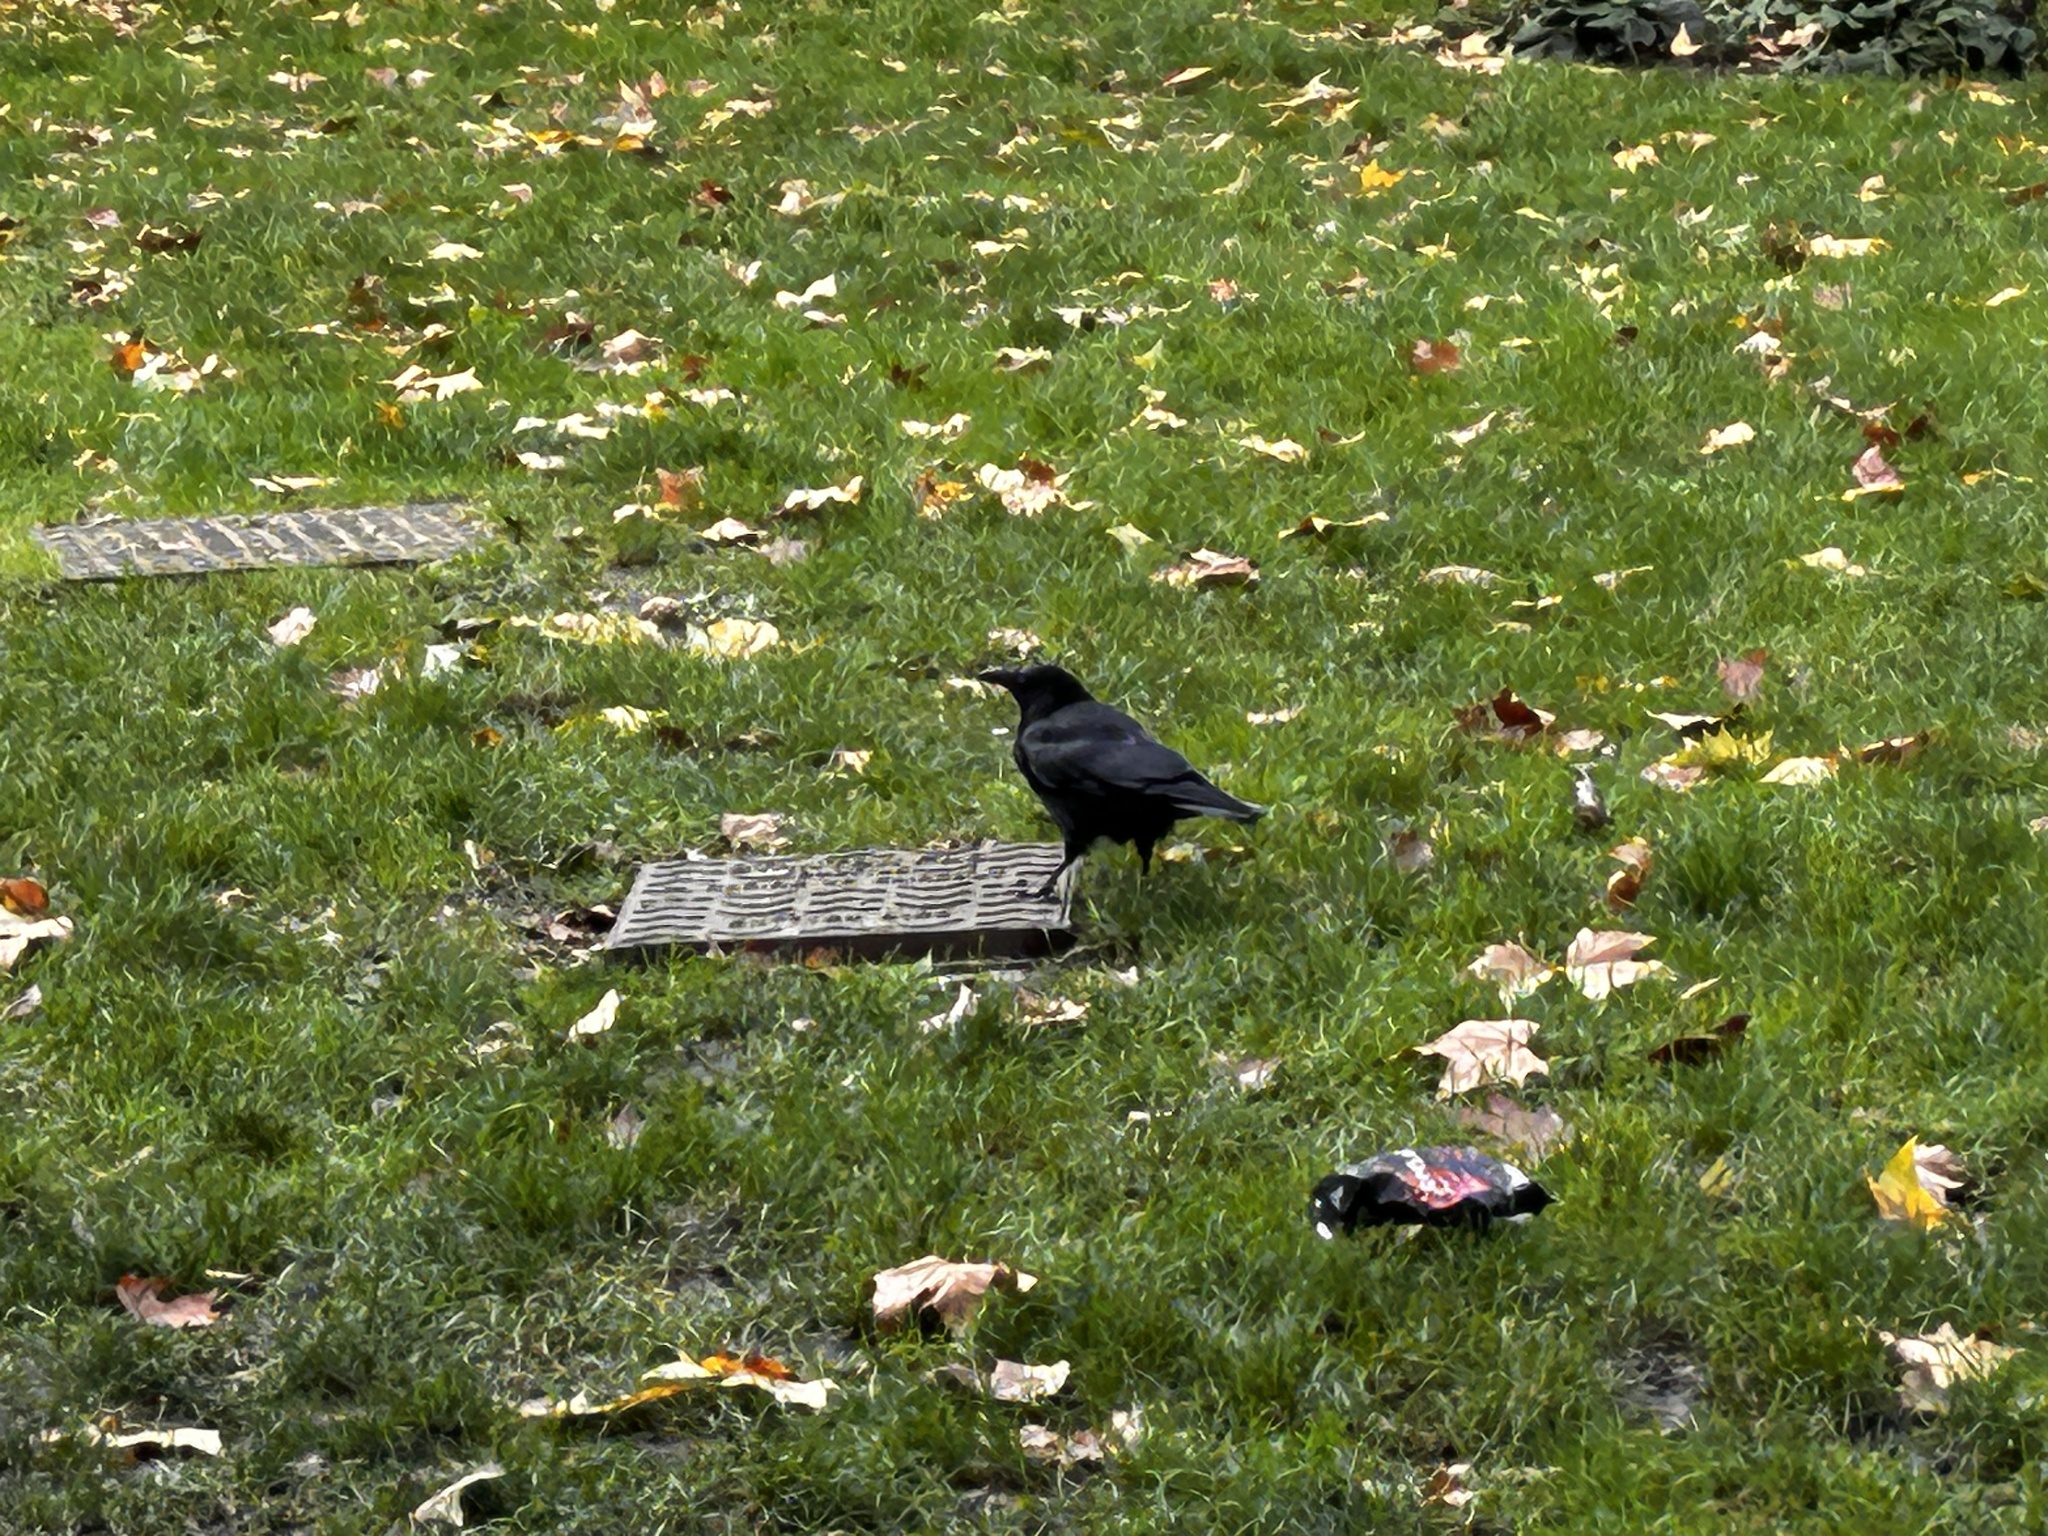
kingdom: Animalia
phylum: Chordata
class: Aves
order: Passeriformes
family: Corvidae
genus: Corvus
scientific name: Corvus corone
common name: Carrion crow
